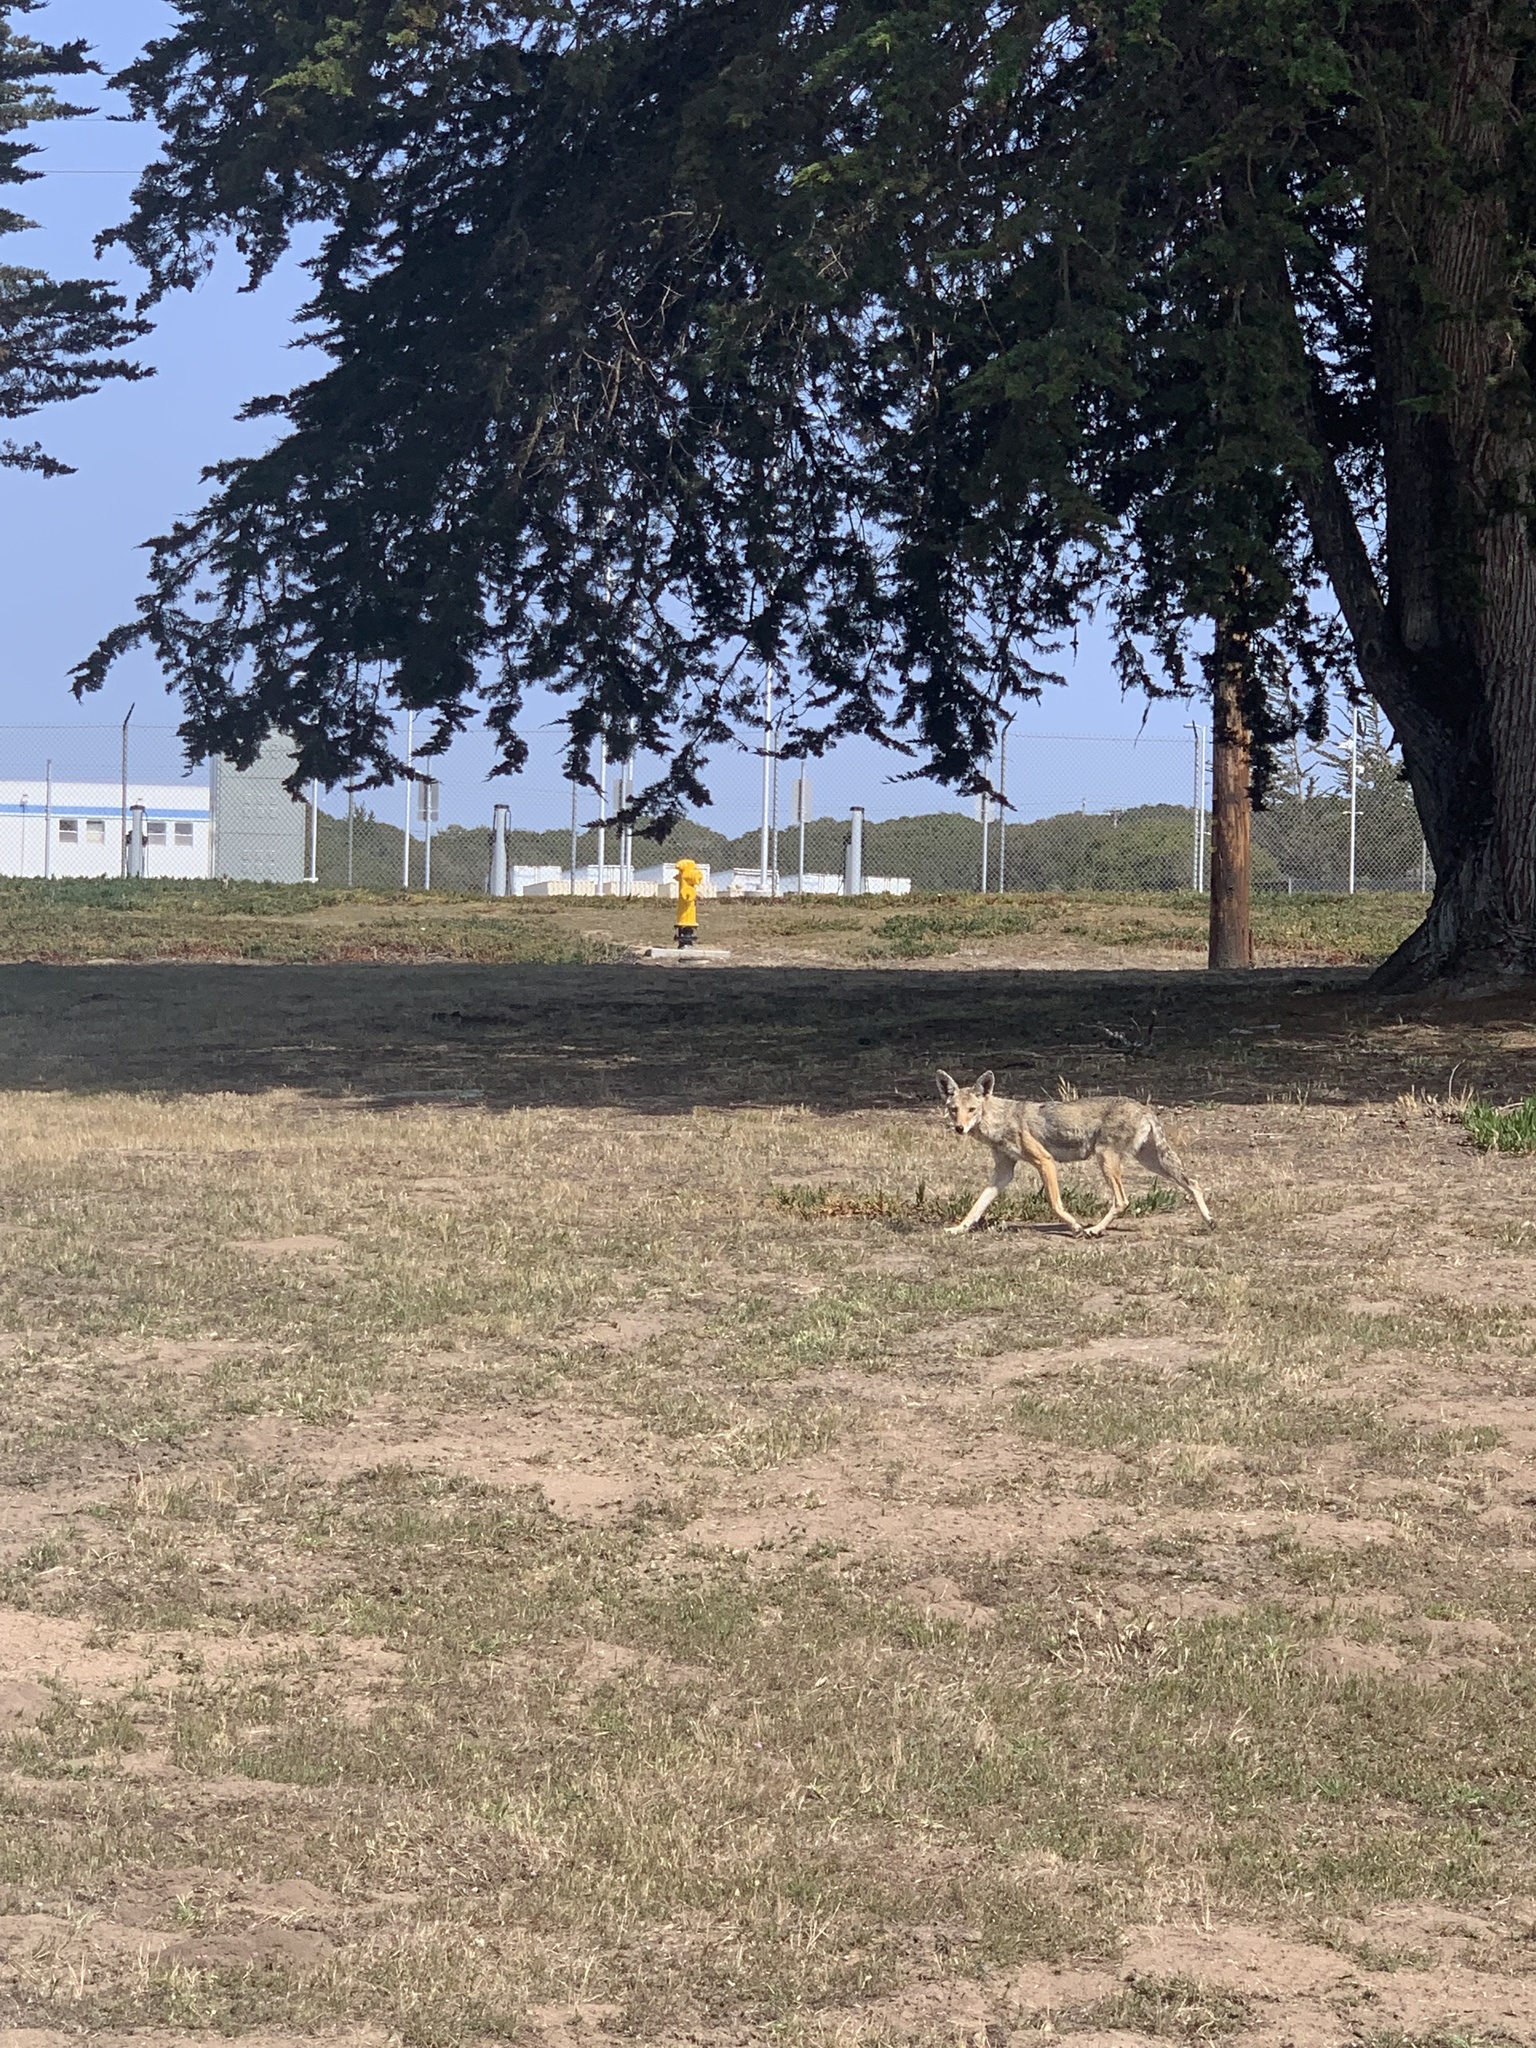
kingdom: Animalia
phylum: Chordata
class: Mammalia
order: Carnivora
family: Canidae
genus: Canis
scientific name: Canis latrans
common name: Coyote
